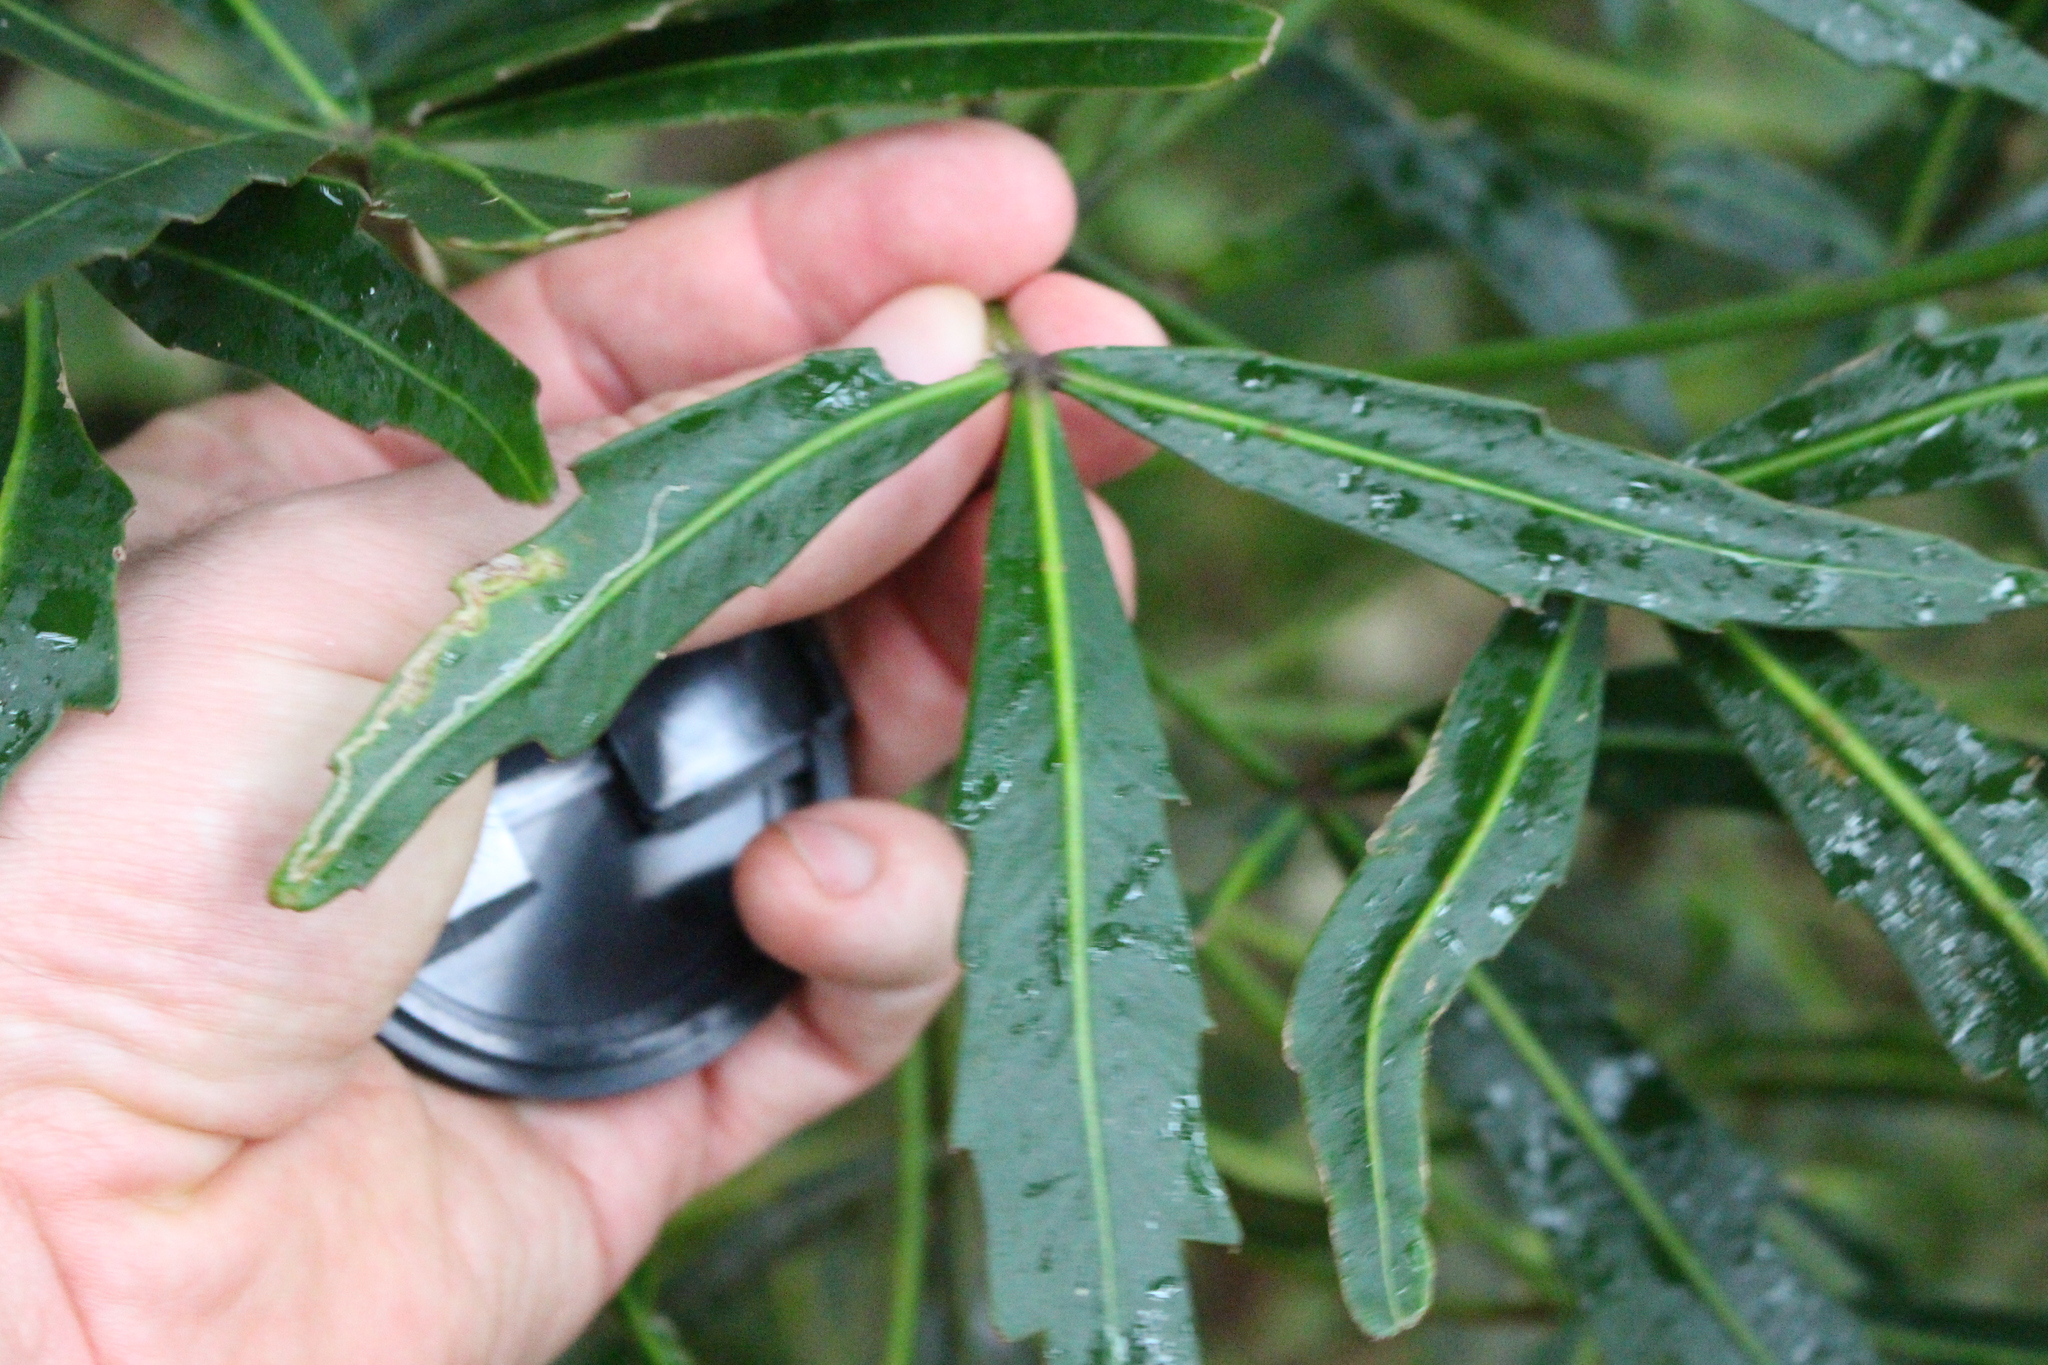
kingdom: Plantae
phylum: Tracheophyta
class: Magnoliopsida
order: Apiales
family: Araliaceae
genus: Pseudopanax
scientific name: Pseudopanax
